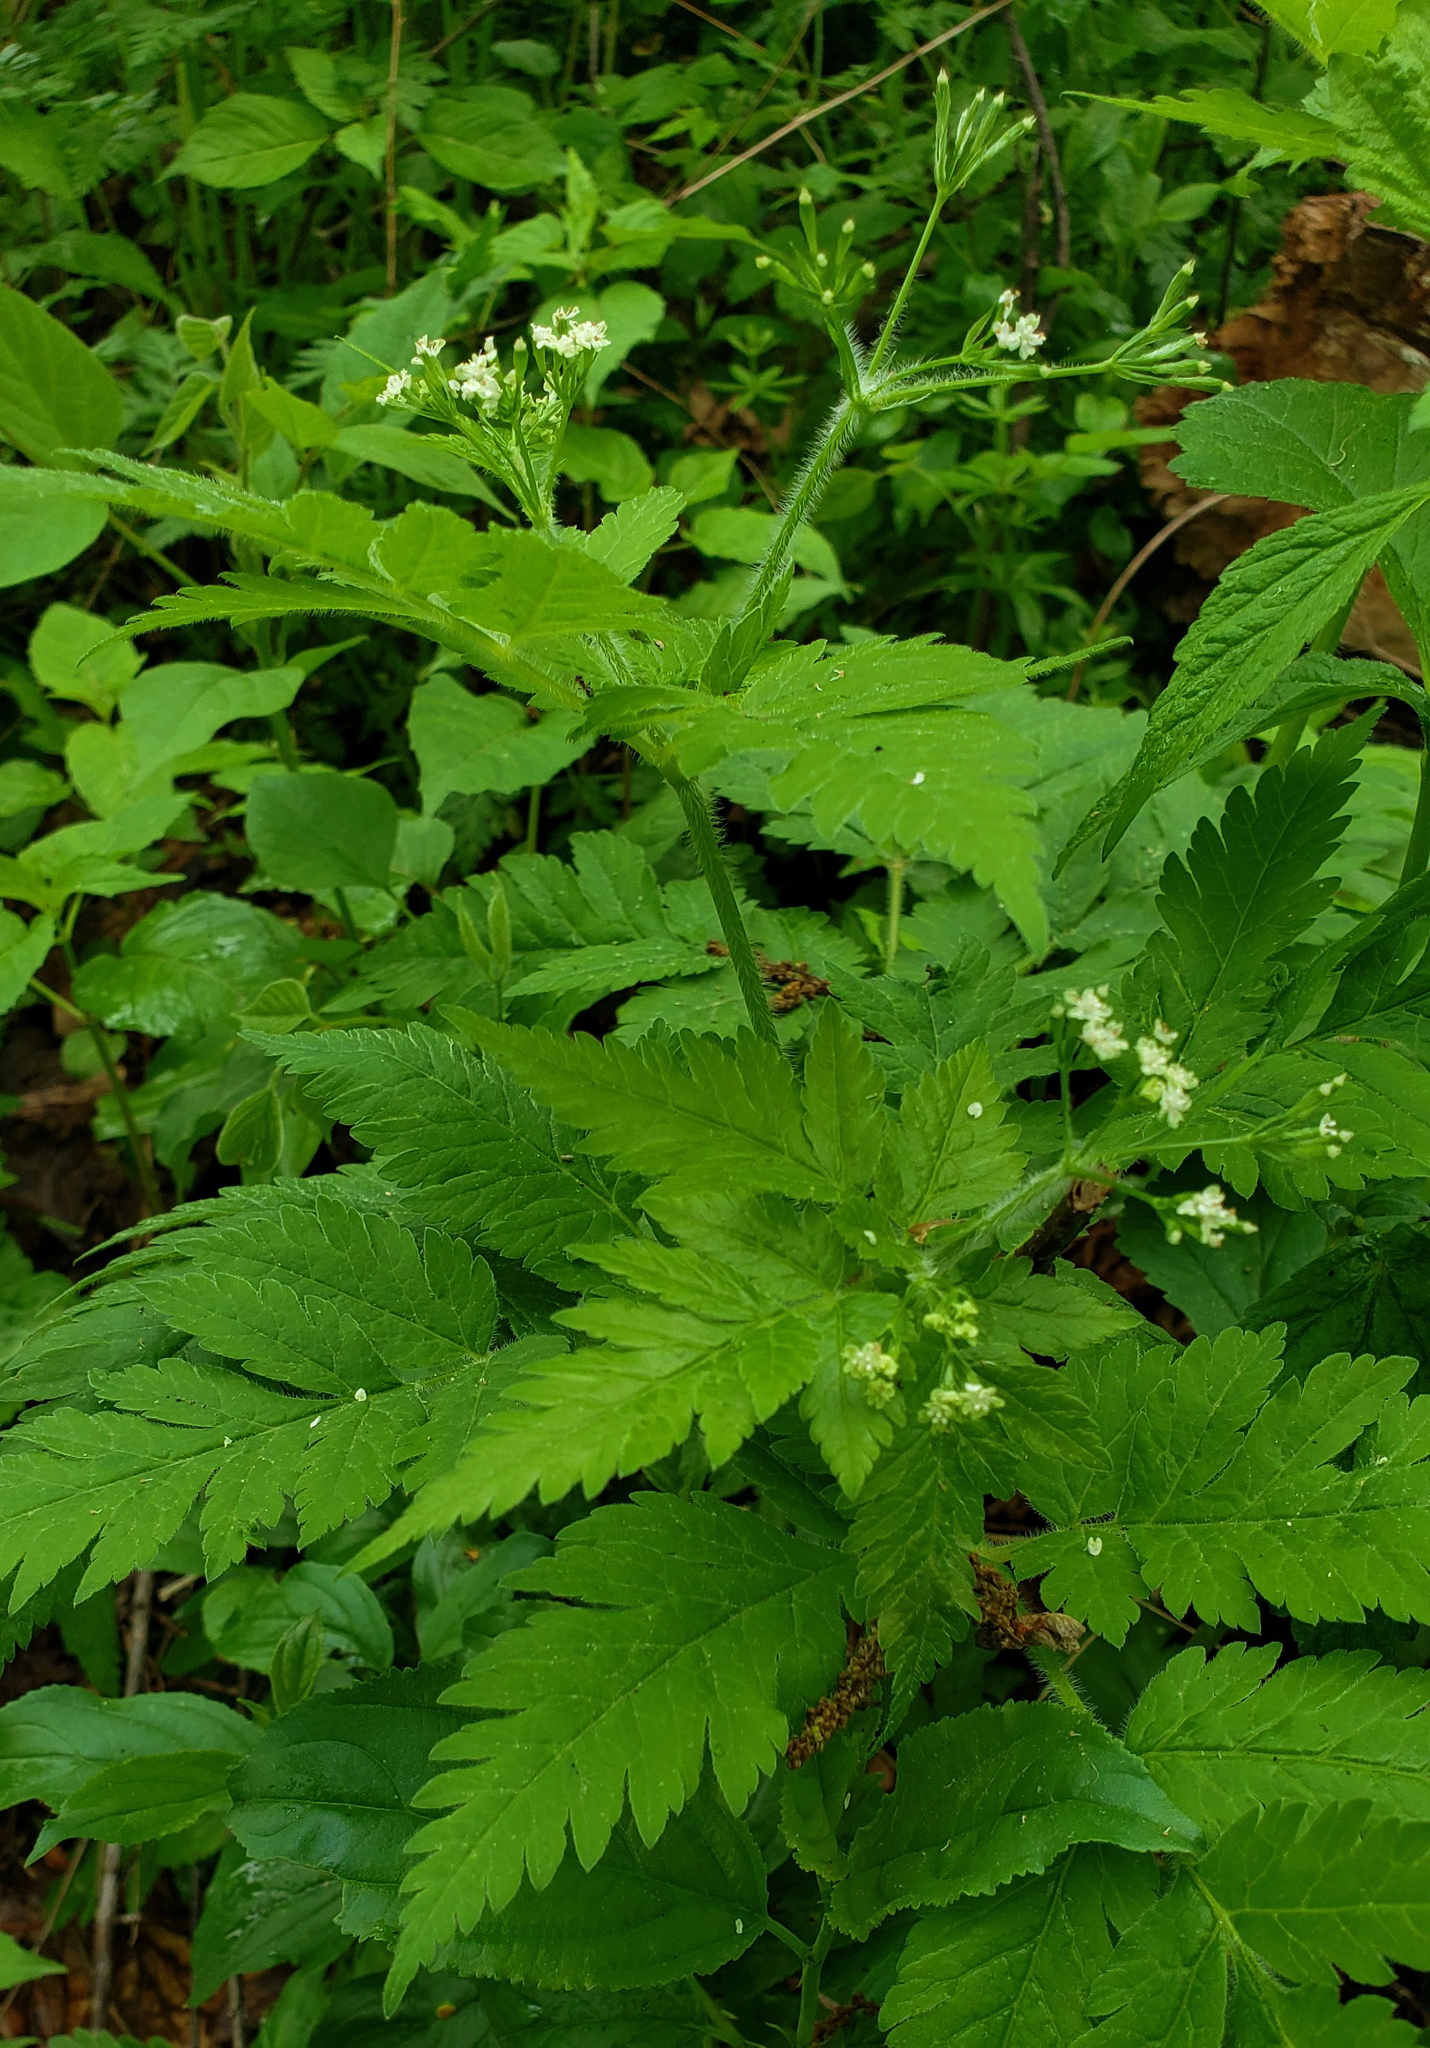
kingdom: Plantae
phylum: Tracheophyta
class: Magnoliopsida
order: Apiales
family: Apiaceae
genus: Osmorhiza
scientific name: Osmorhiza claytonii
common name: Hairy sweet cicely
